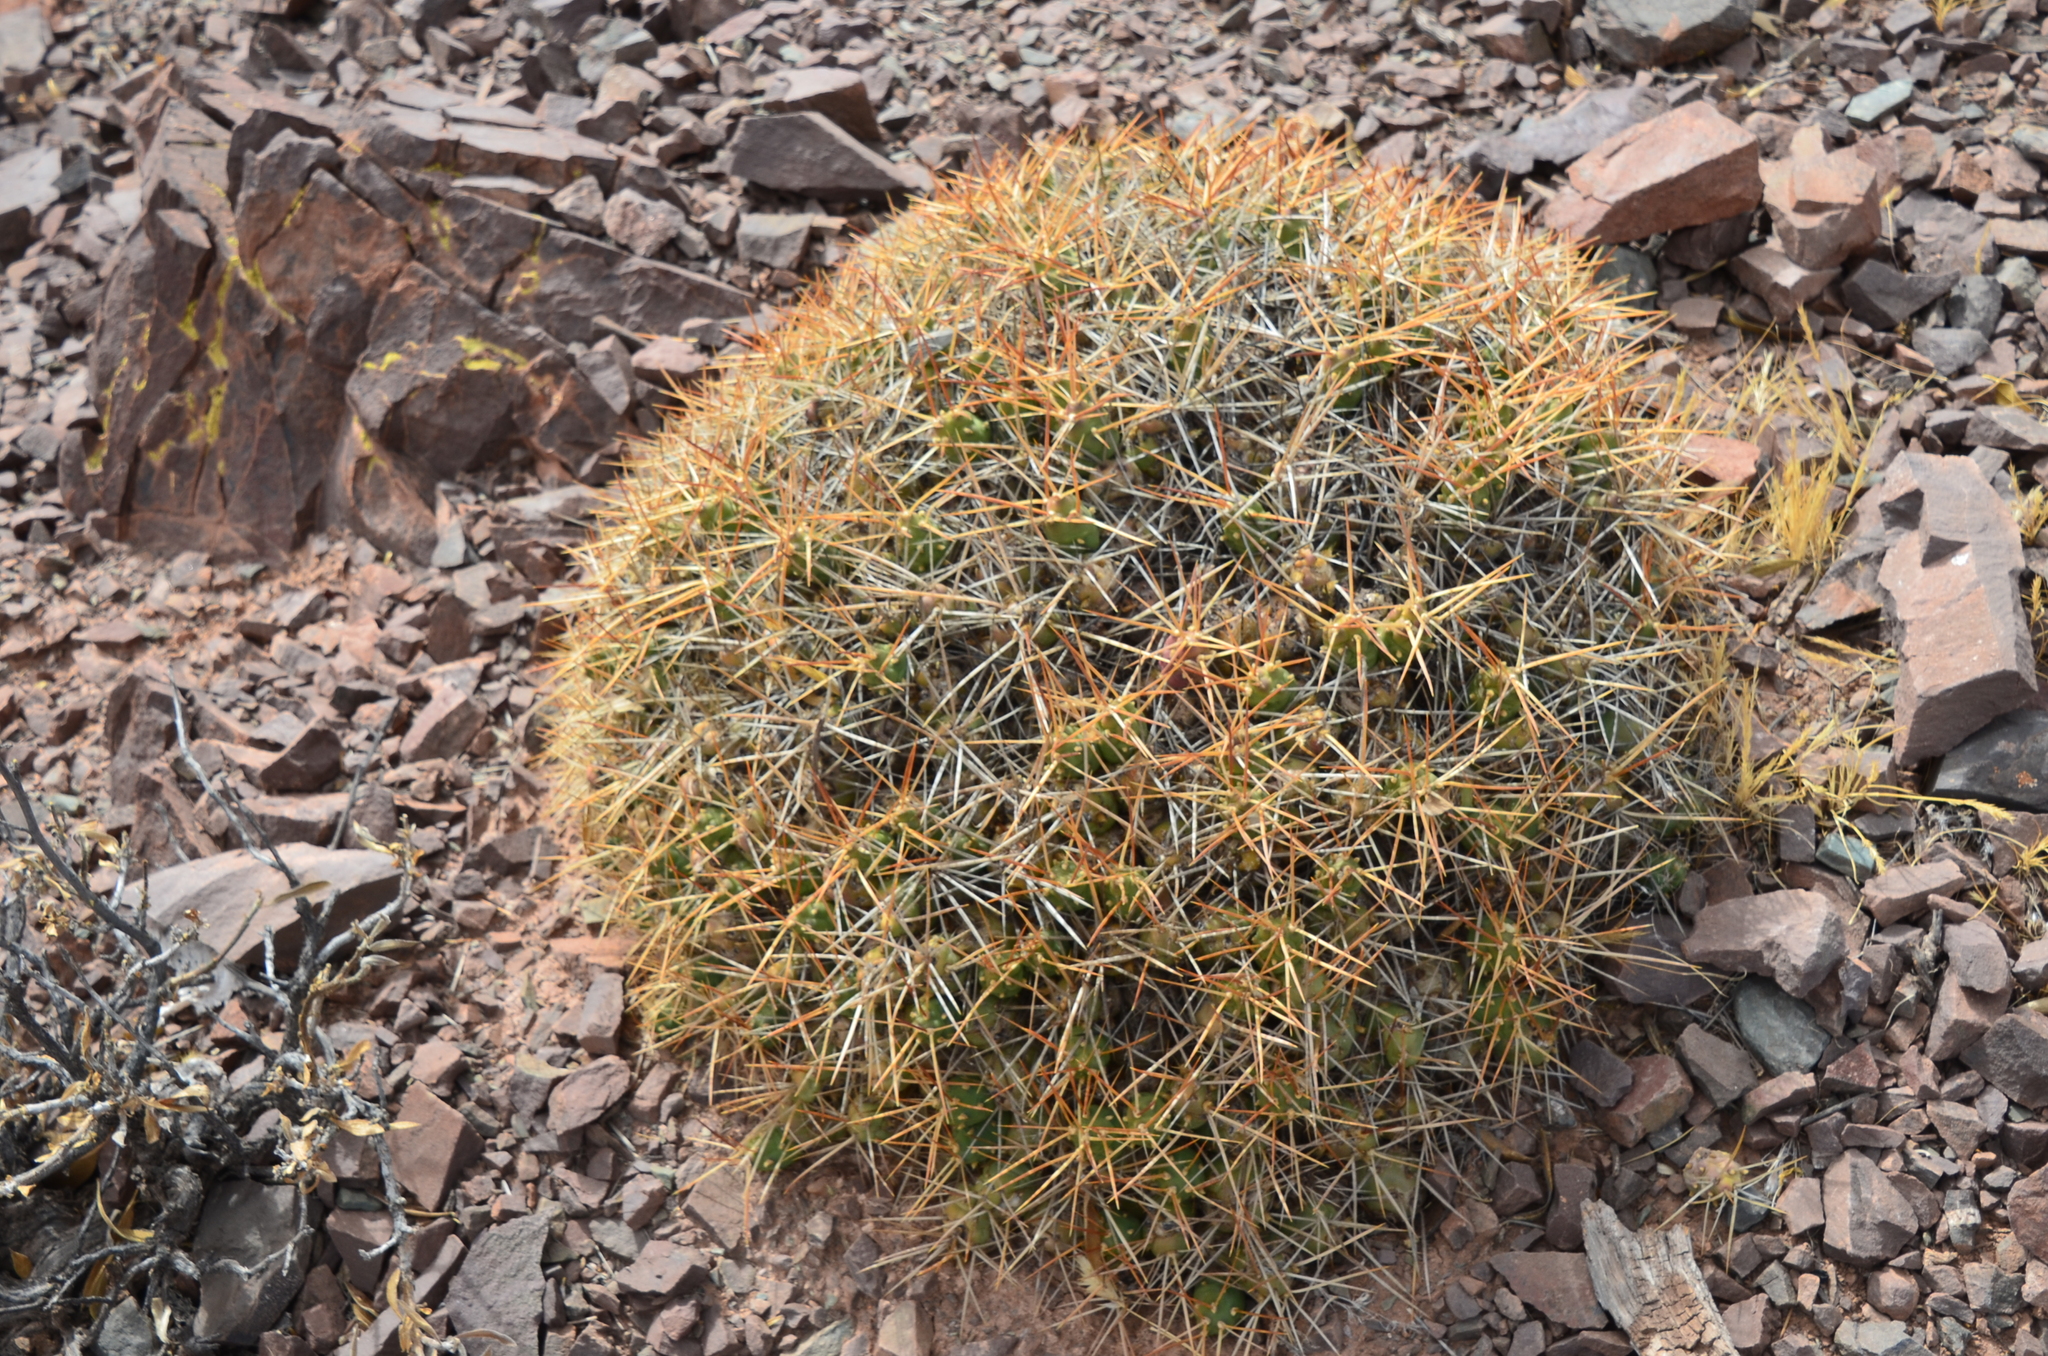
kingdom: Plantae
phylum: Tracheophyta
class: Magnoliopsida
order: Caryophyllales
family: Cactaceae
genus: Cumulopuntia
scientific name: Cumulopuntia boliviana
